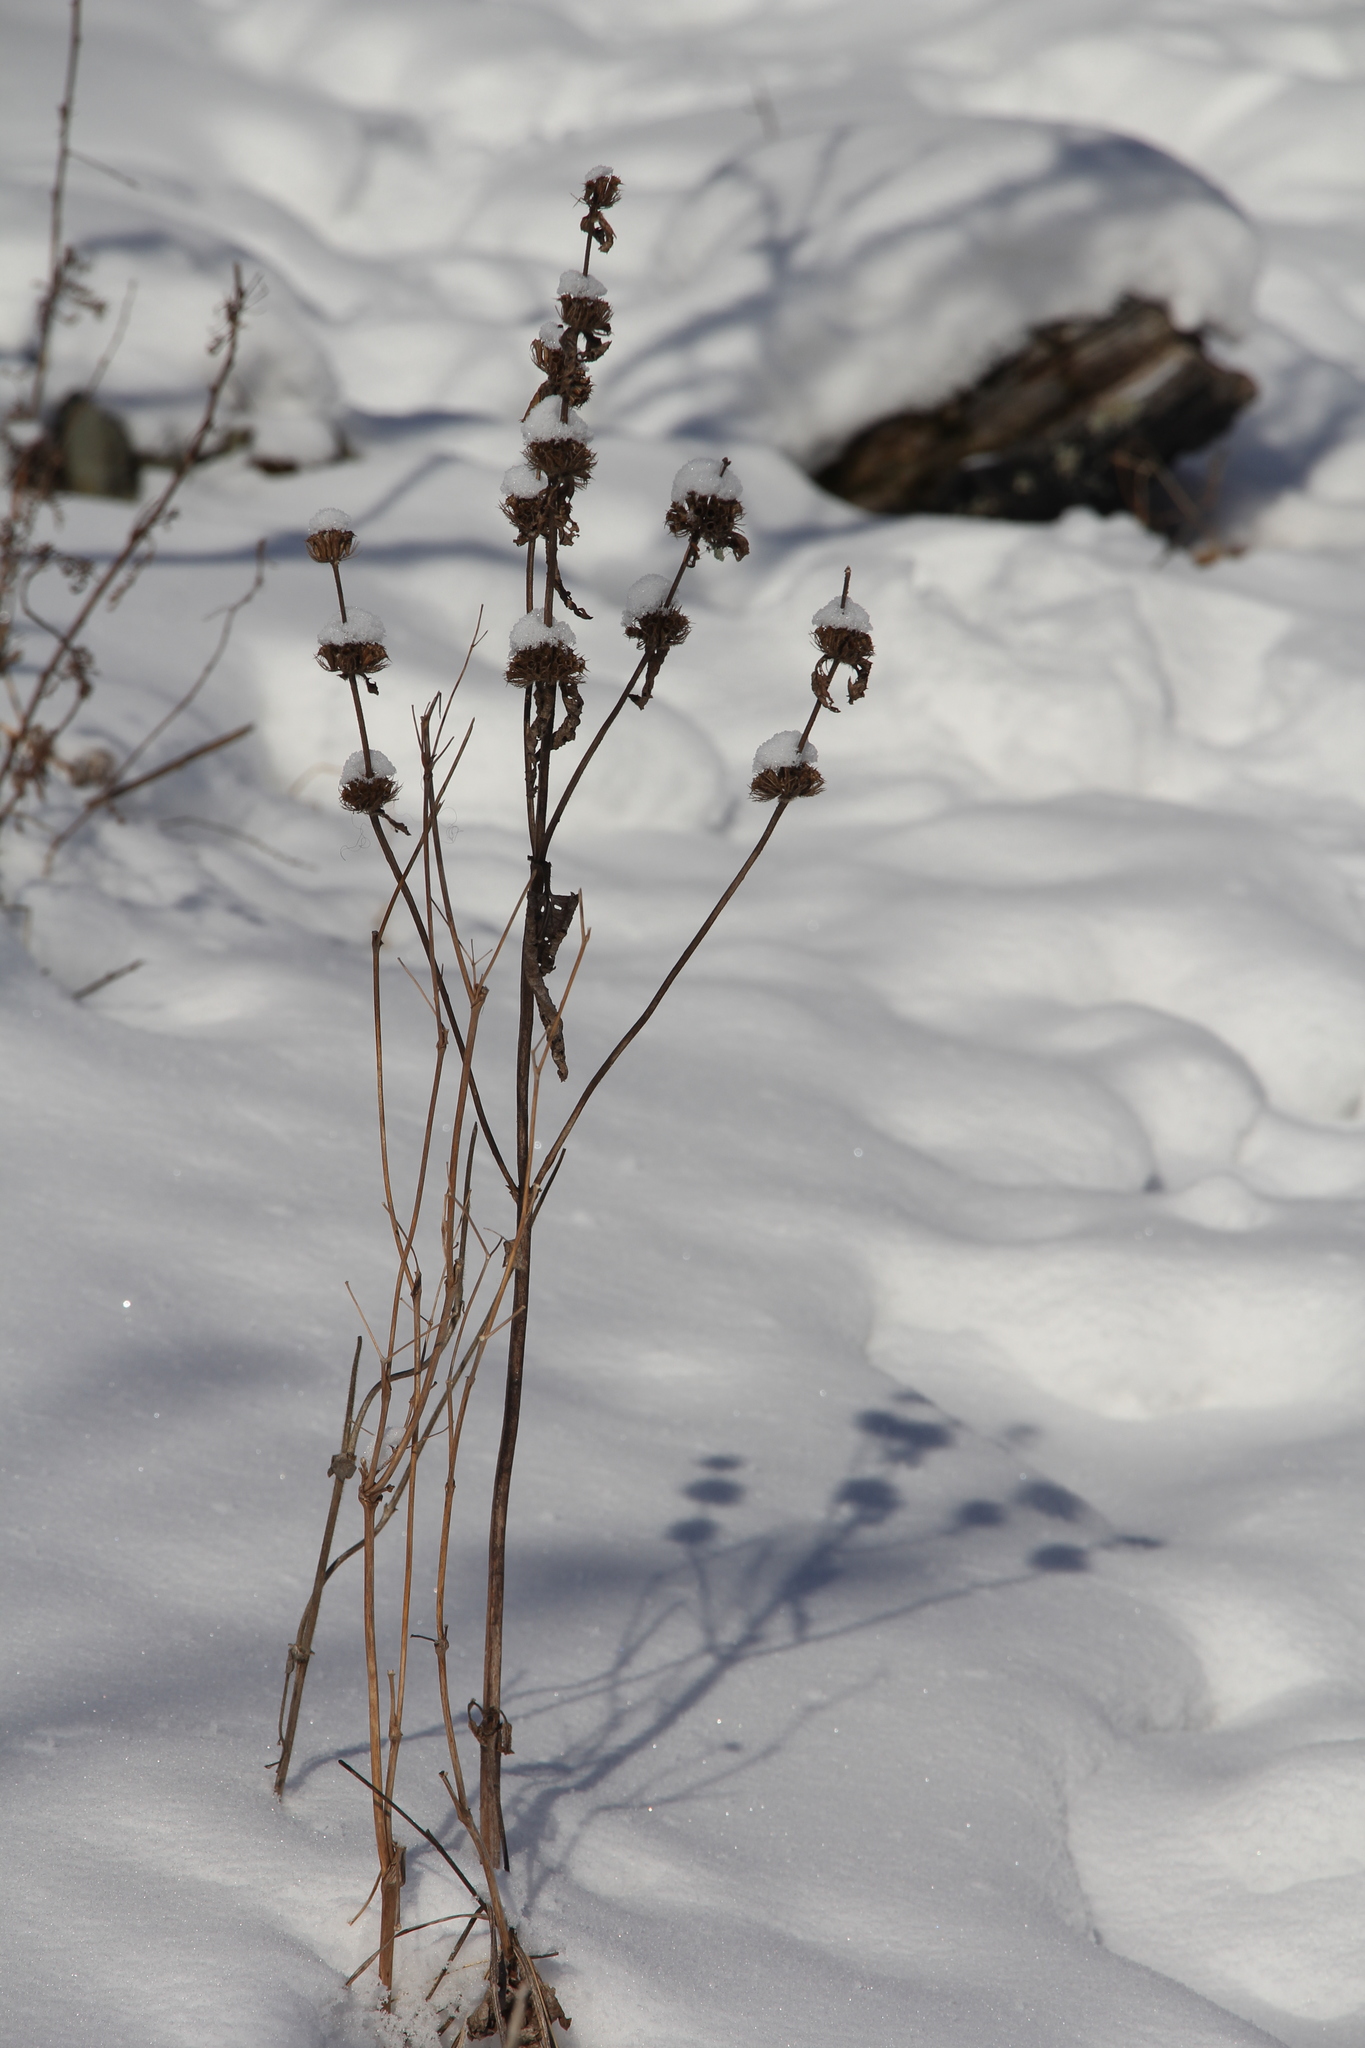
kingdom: Plantae
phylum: Tracheophyta
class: Magnoliopsida
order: Lamiales
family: Lamiaceae
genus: Phlomoides
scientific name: Phlomoides tuberosa
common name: Tuberous jerusalem sage
